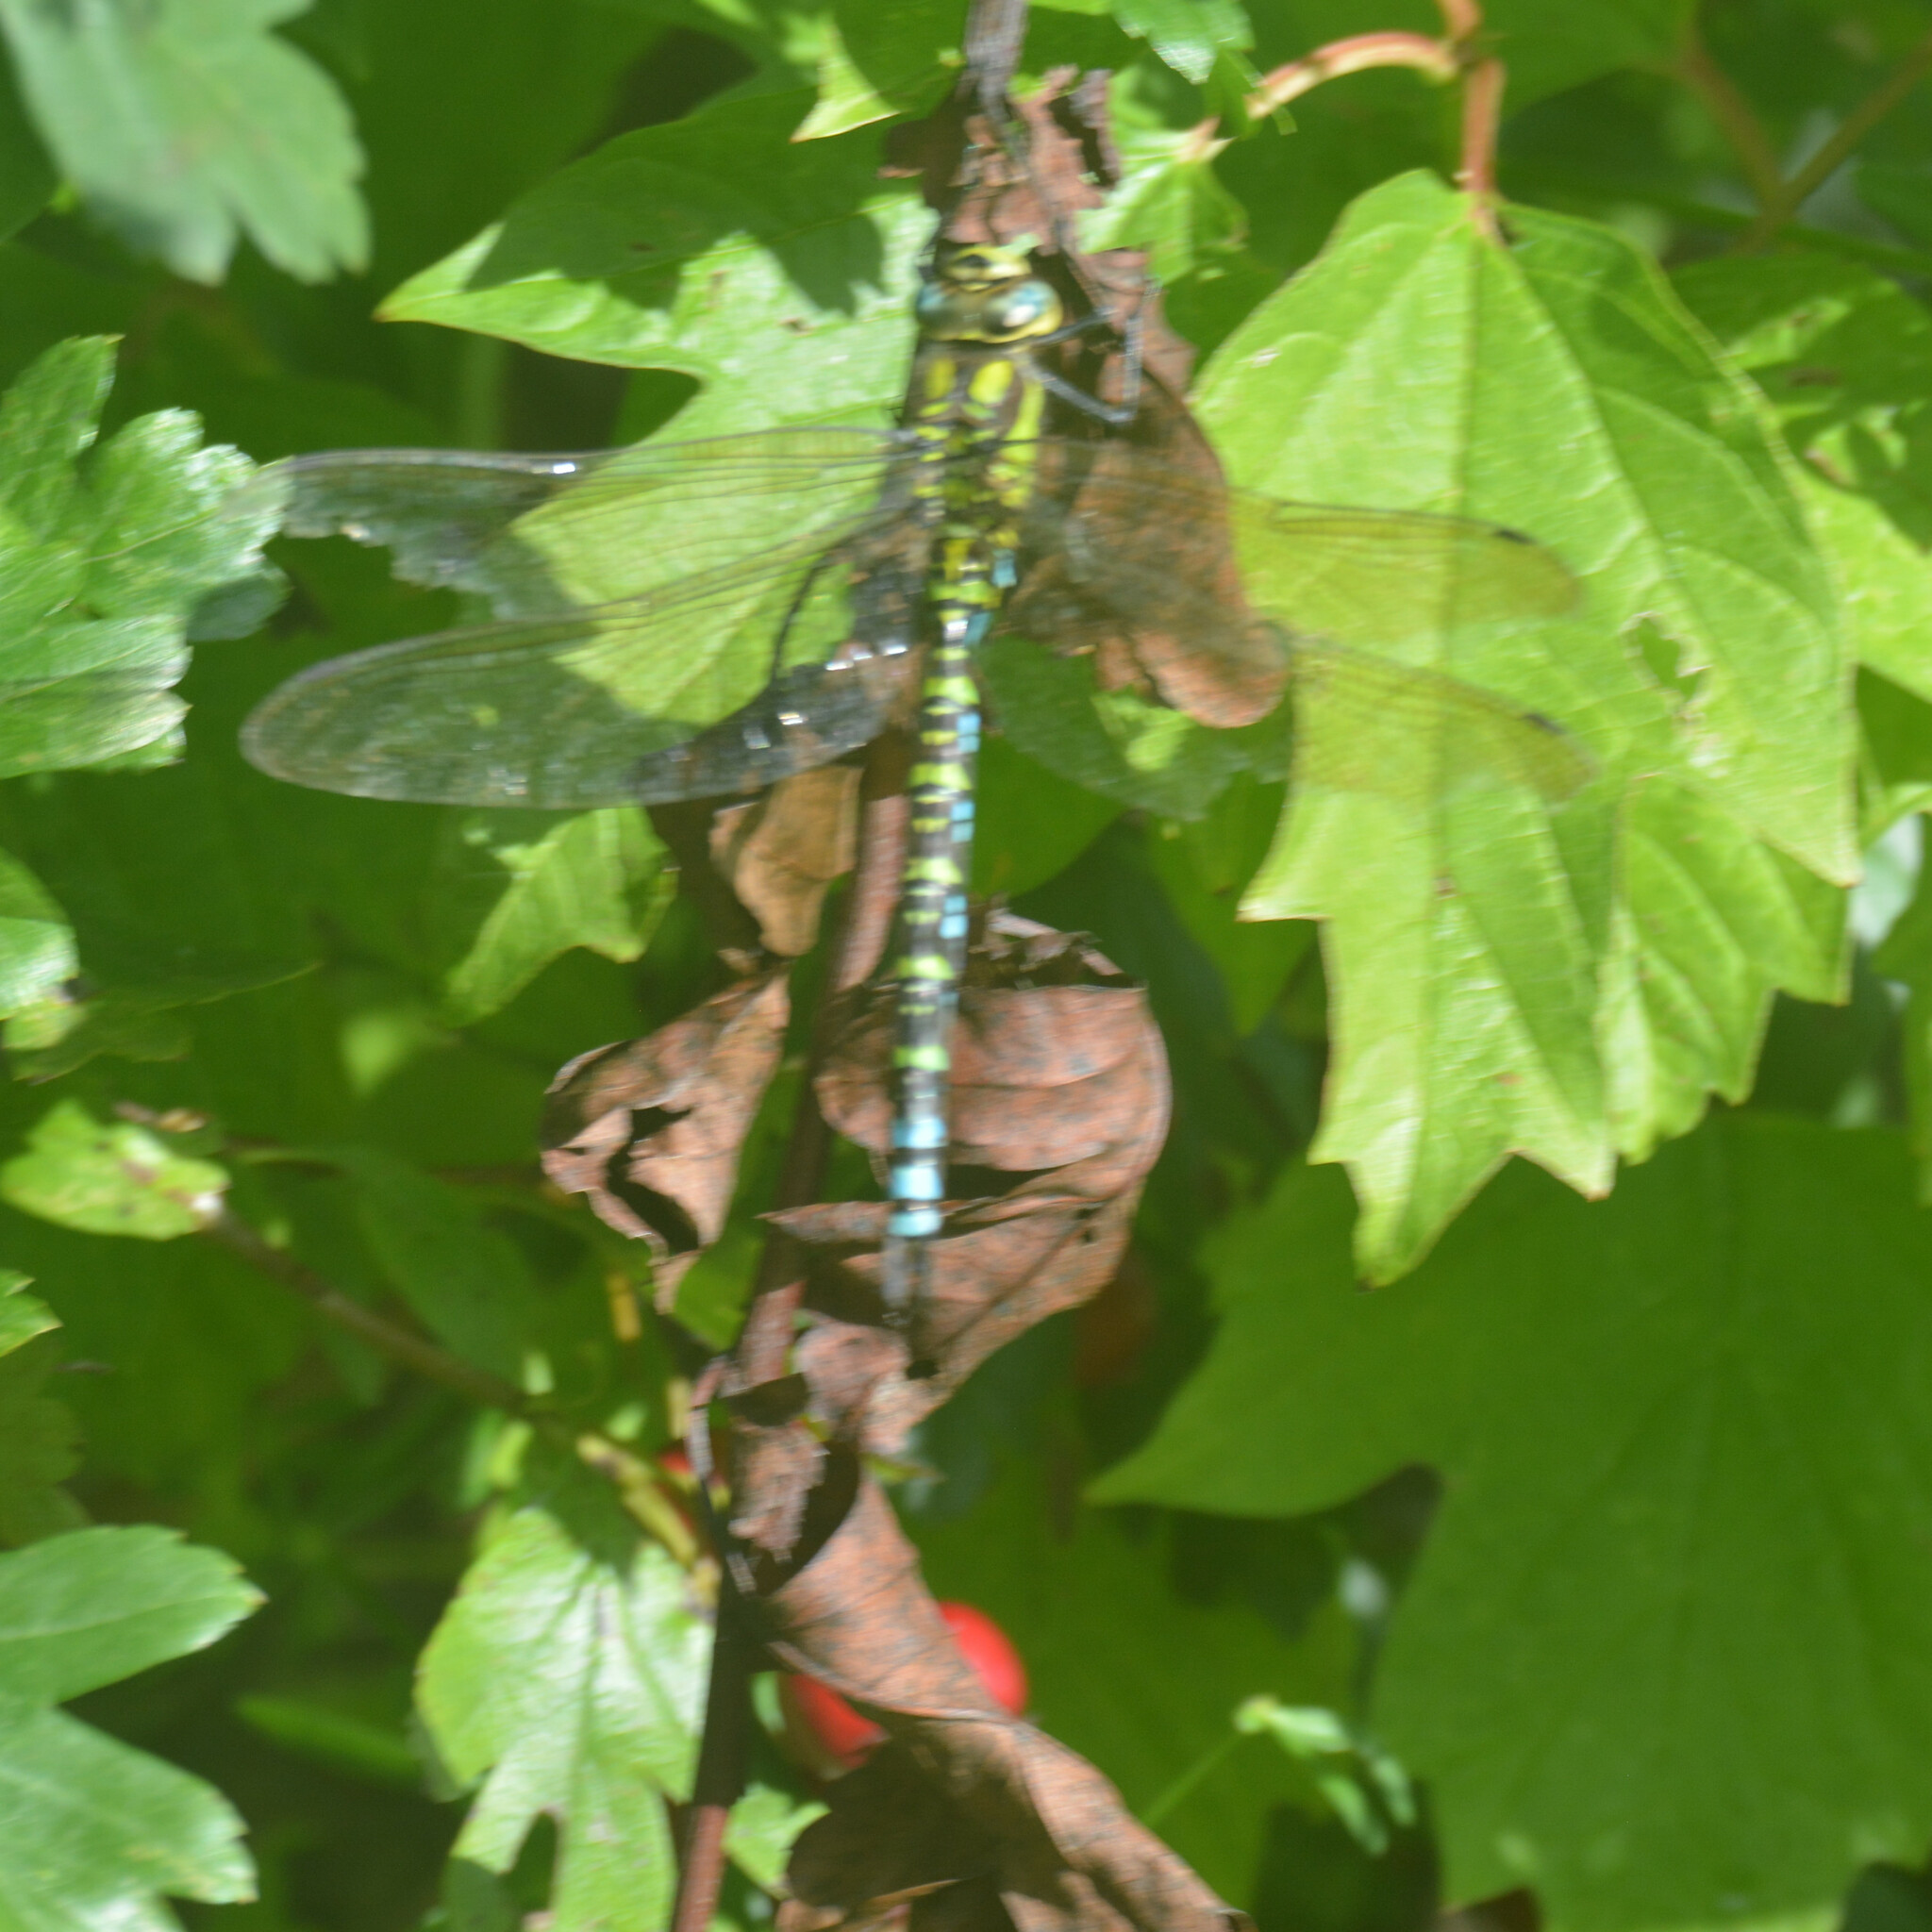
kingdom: Animalia
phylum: Arthropoda
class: Insecta
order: Odonata
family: Aeshnidae
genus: Aeshna
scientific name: Aeshna cyanea
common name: Southern hawker
